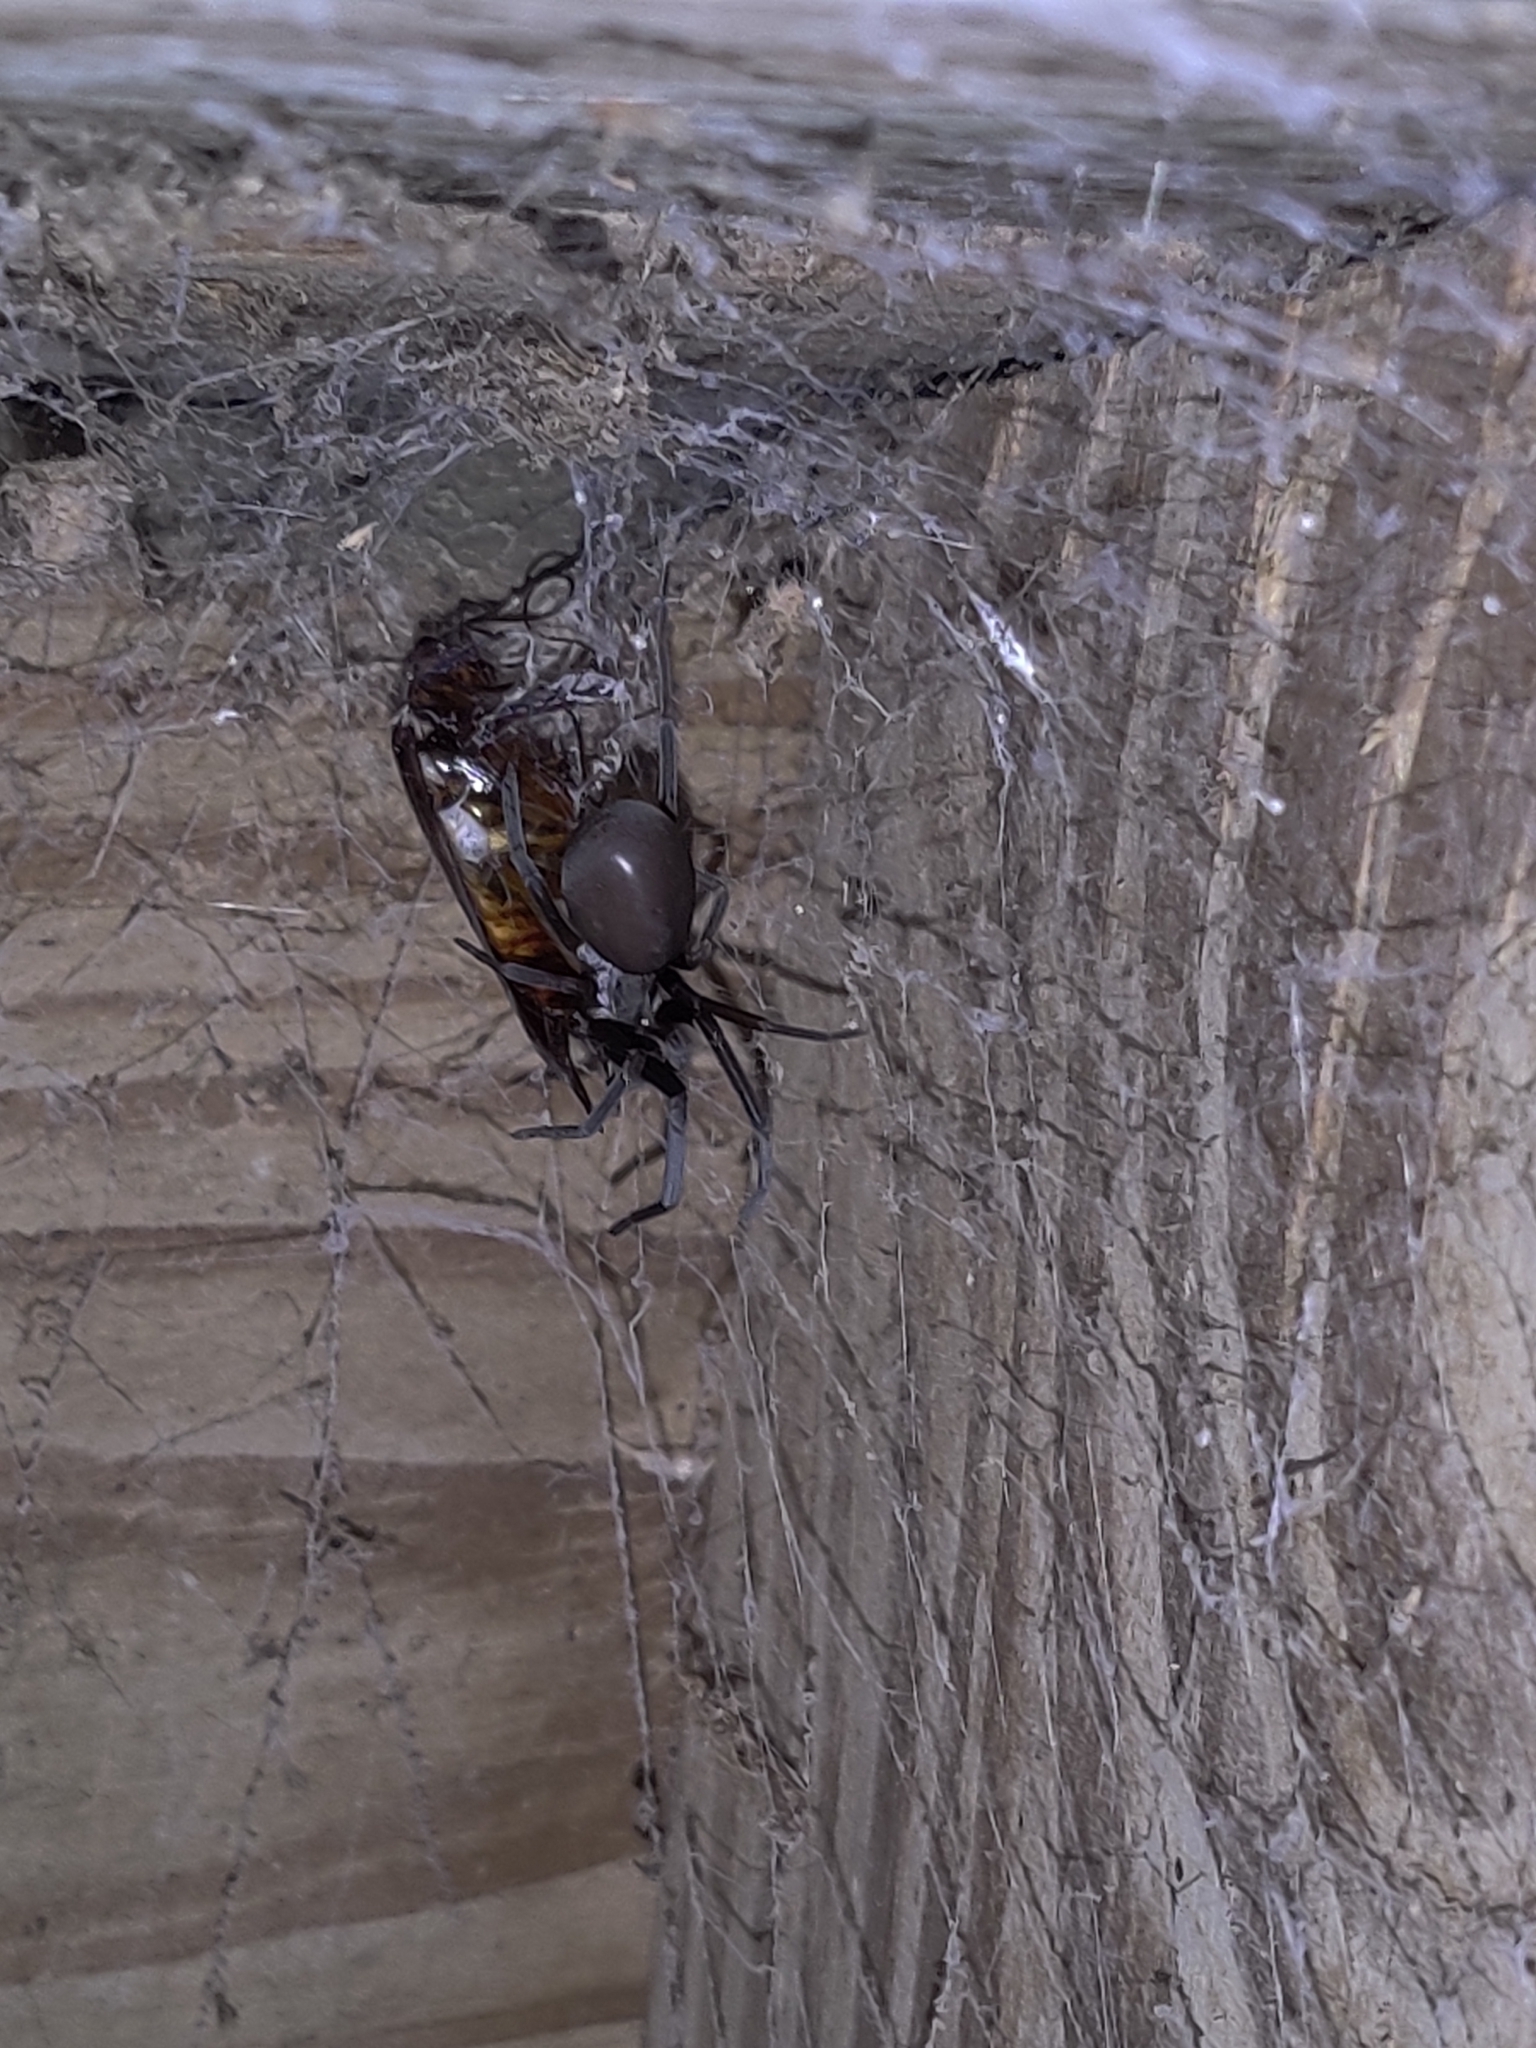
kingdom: Animalia
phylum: Arthropoda
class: Arachnida
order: Araneae
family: Filistatidae
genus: Kukulcania
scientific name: Kukulcania hibernalis
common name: Crevice weaver
